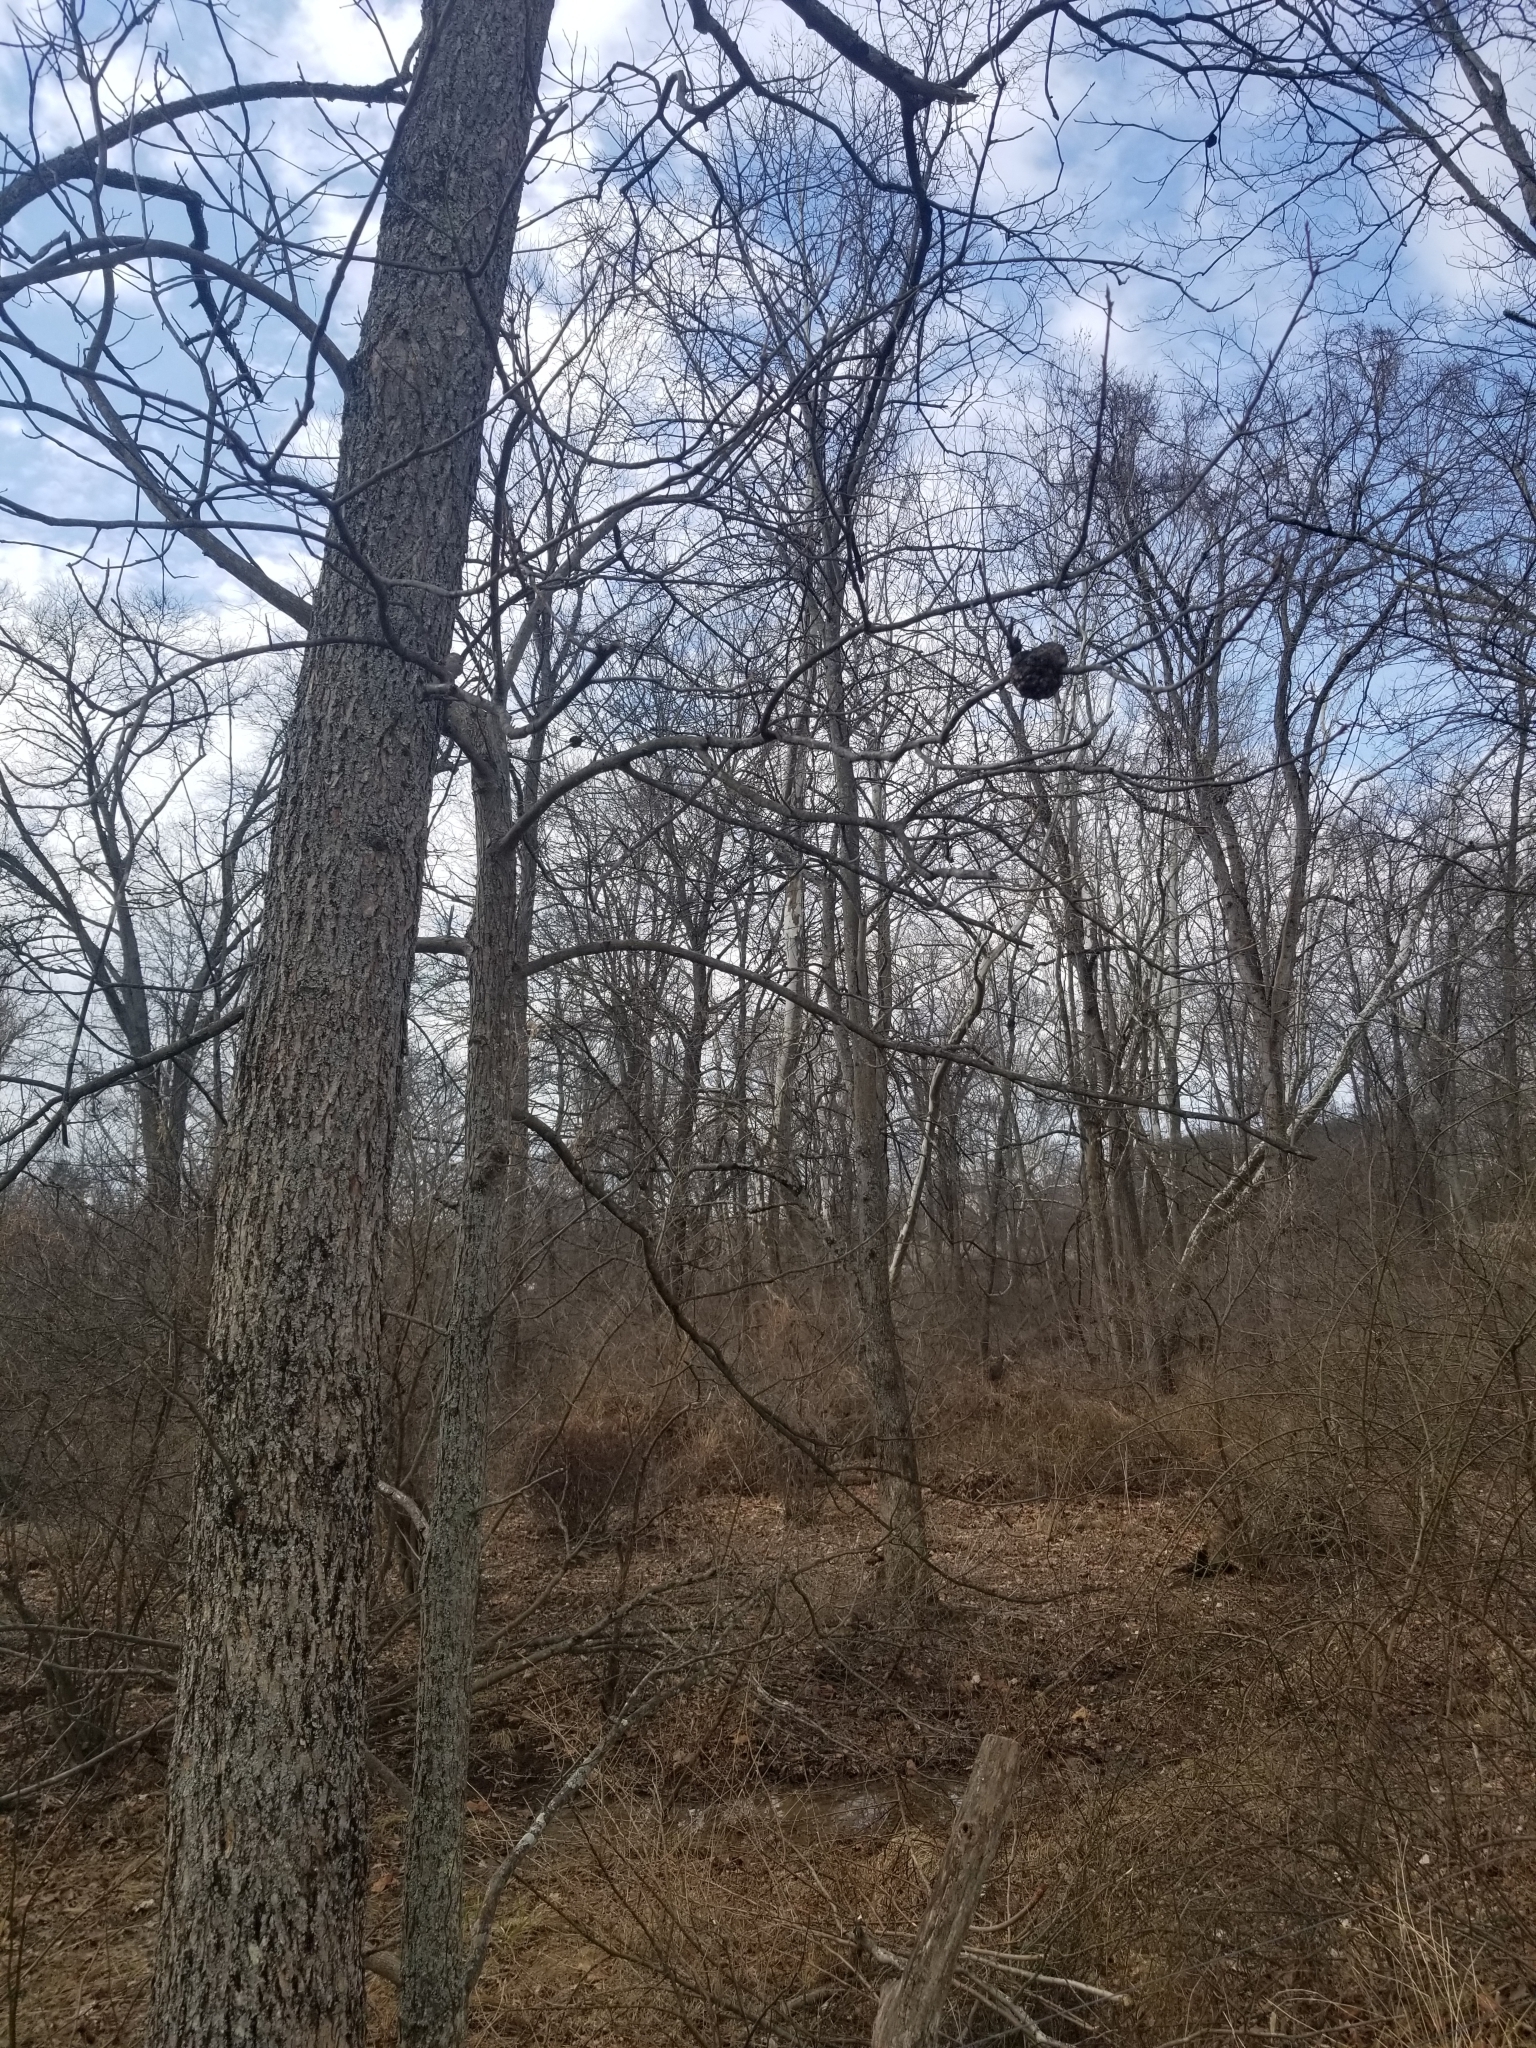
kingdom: Bacteria
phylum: Proteobacteria
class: Alphaproteobacteria
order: Rhizobiales
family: Rhizobiaceae
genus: Rhizobium
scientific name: Rhizobium Agrobacterium radiobacter
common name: Bacterial crown gall
